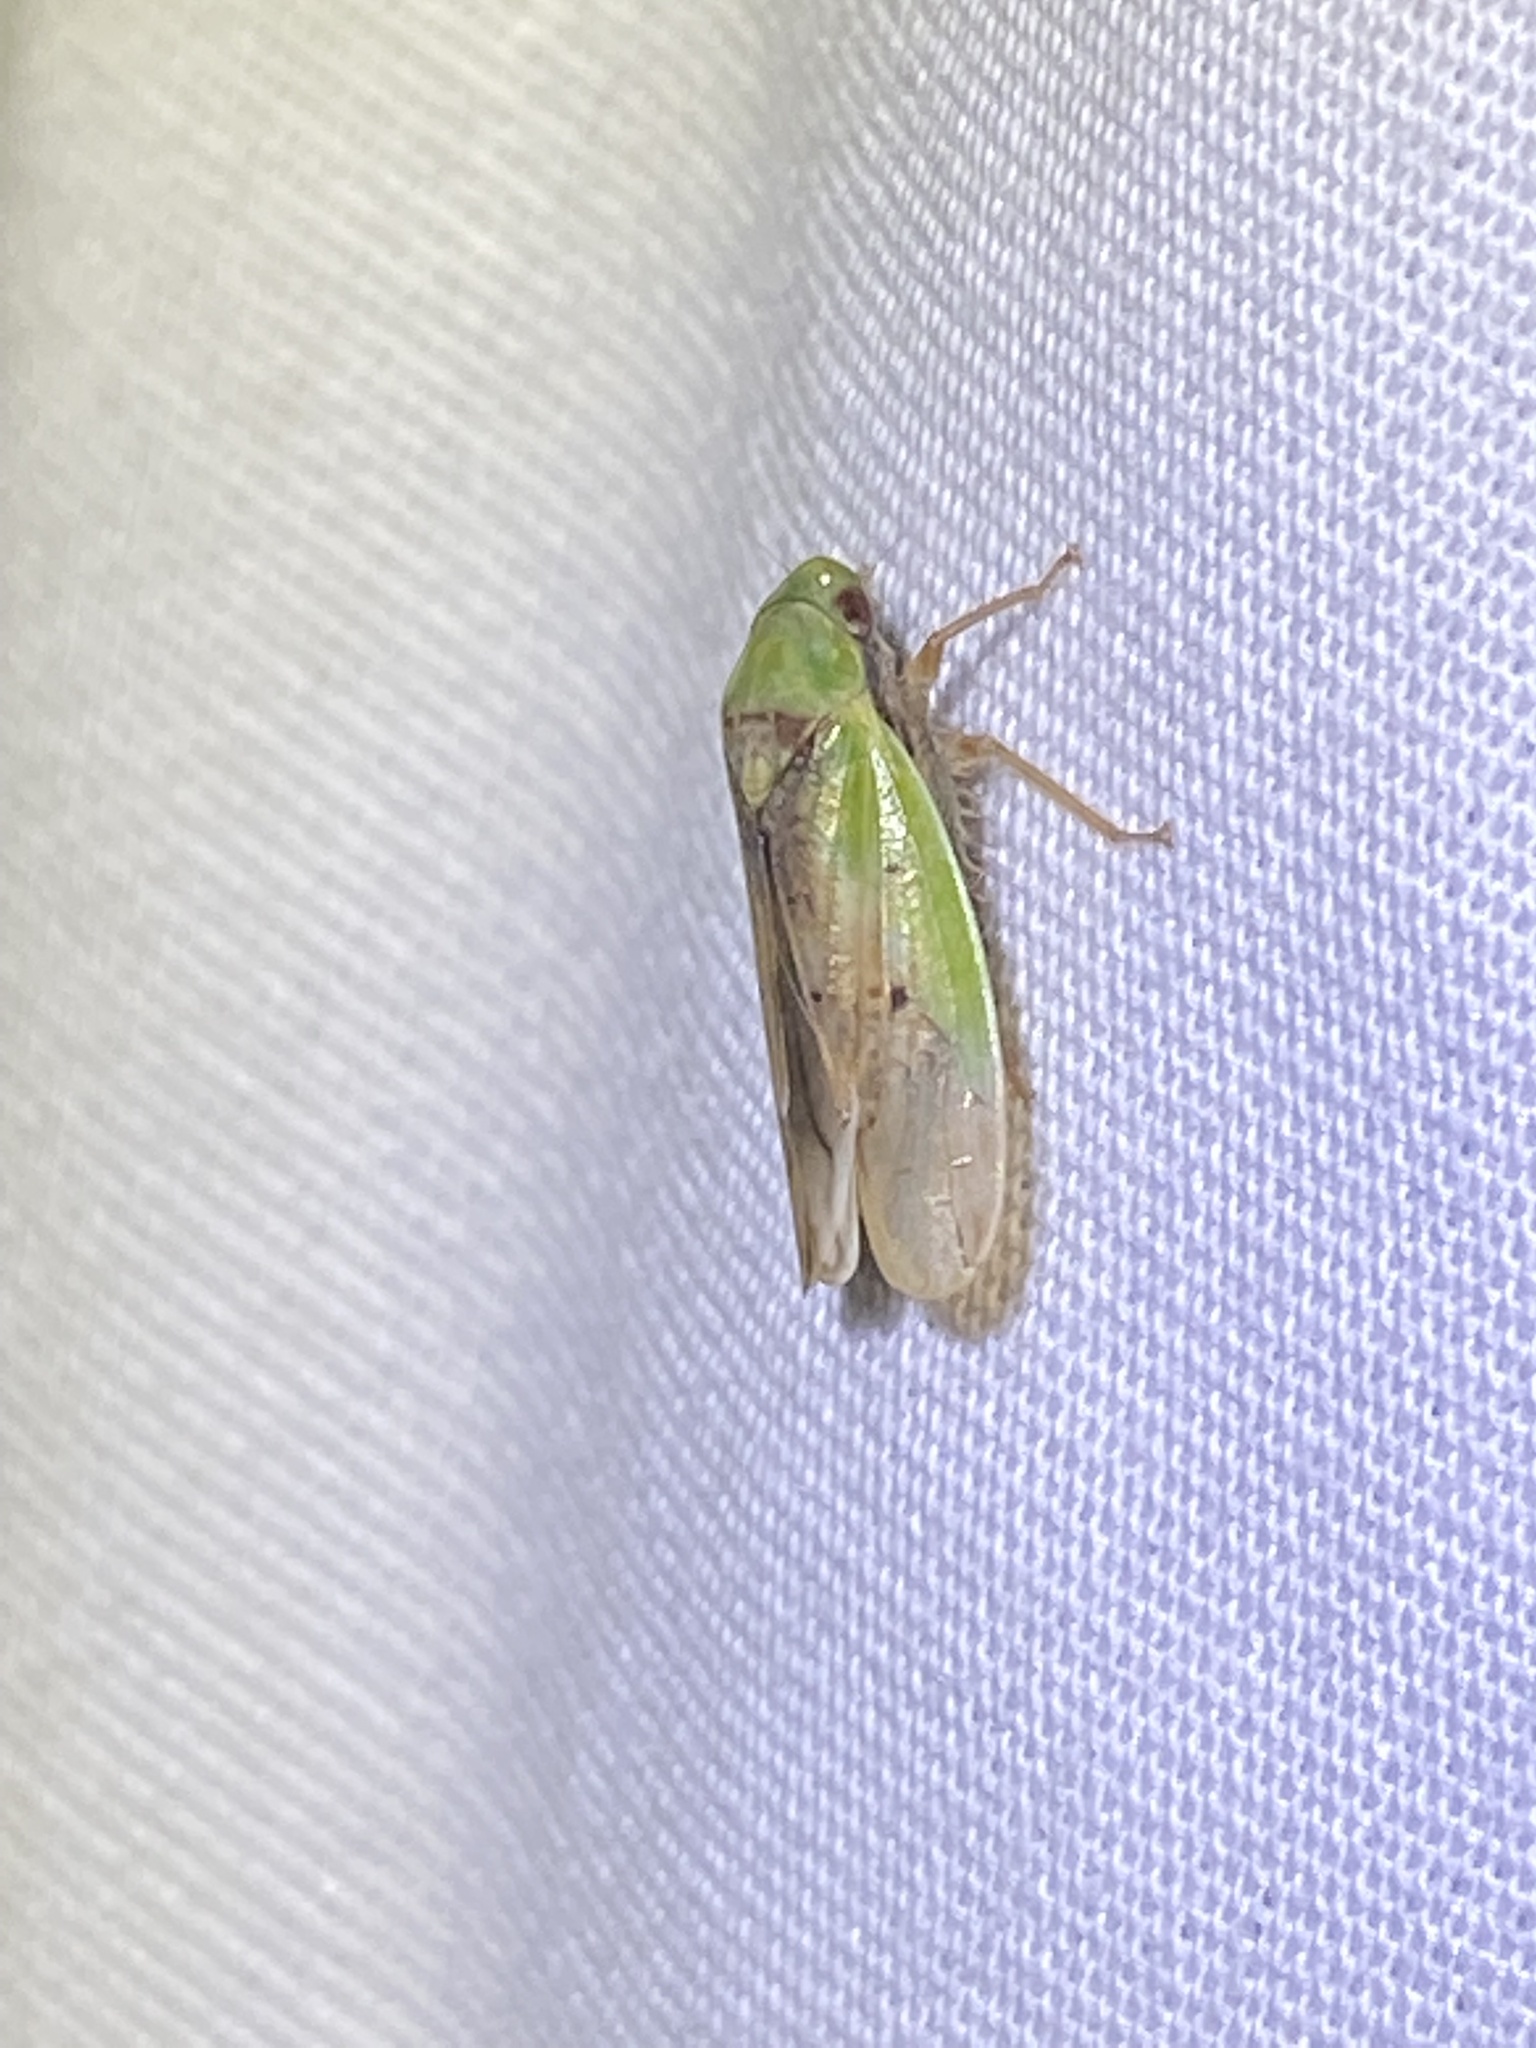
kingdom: Animalia
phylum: Arthropoda
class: Insecta
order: Hemiptera
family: Cicadellidae
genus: Ponana
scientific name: Ponana pectoralis
